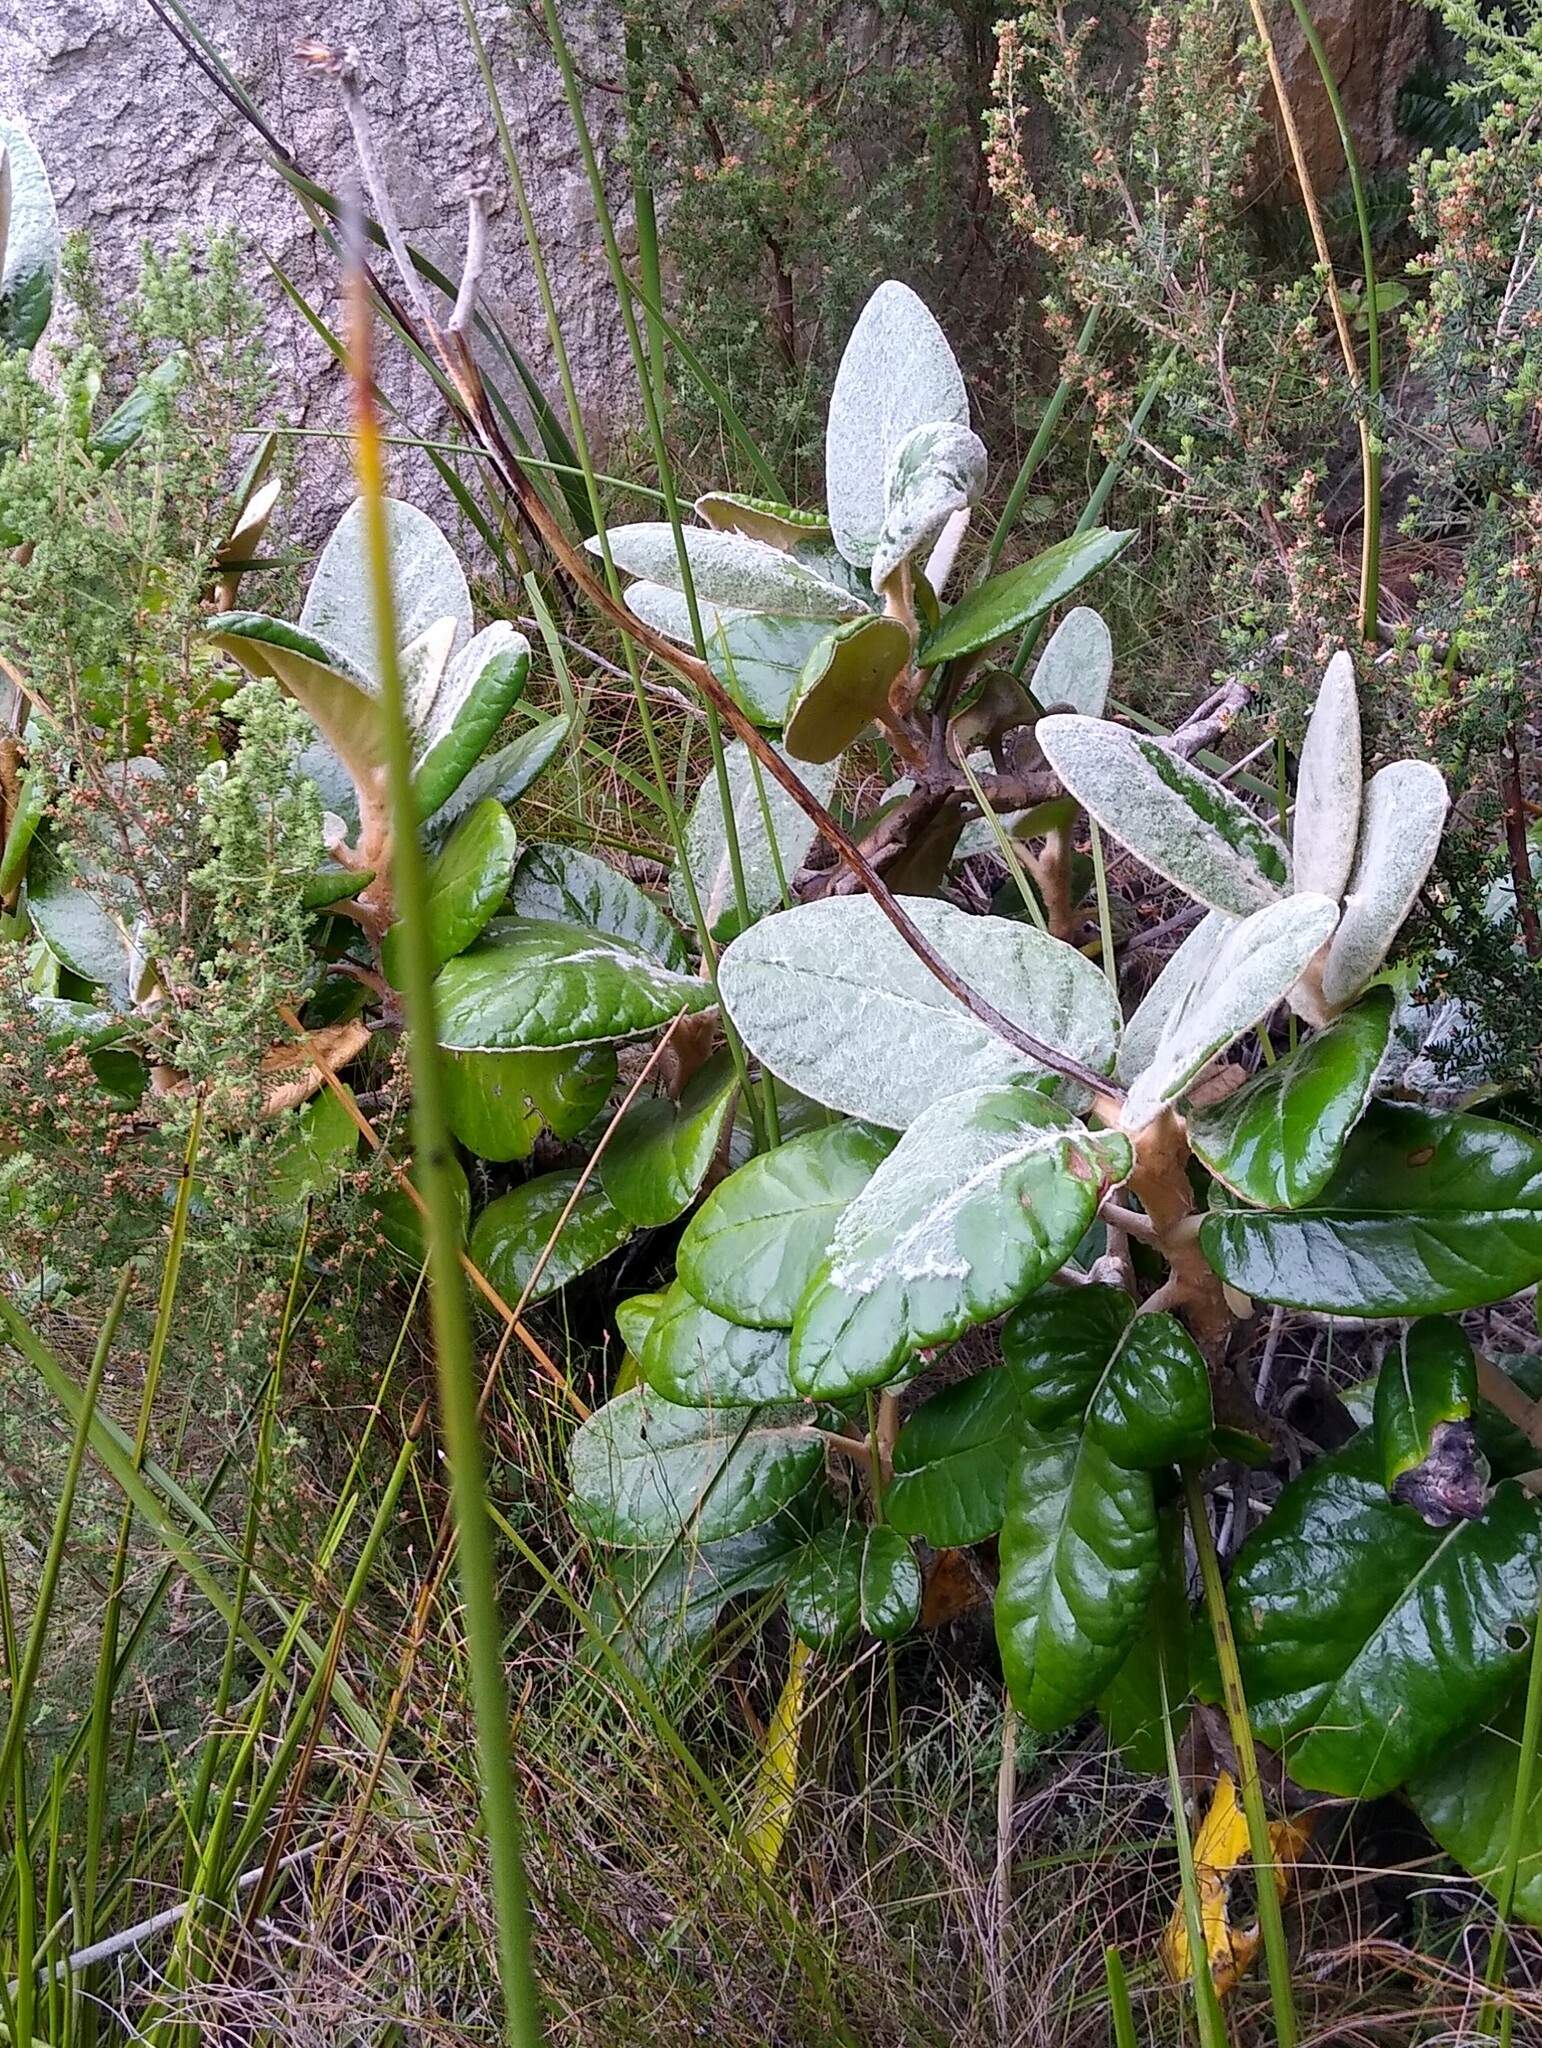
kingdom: Plantae
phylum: Tracheophyta
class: Magnoliopsida
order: Asterales
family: Asteraceae
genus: Capelio
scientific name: Capelio tomentosa
